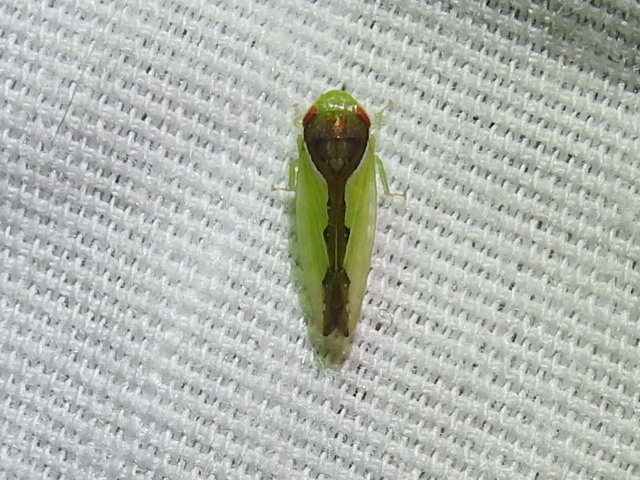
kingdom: Animalia
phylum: Arthropoda
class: Insecta
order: Hemiptera
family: Cicadellidae
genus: Omansobara ing
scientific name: Omansobara ing Omansobara palliolata
